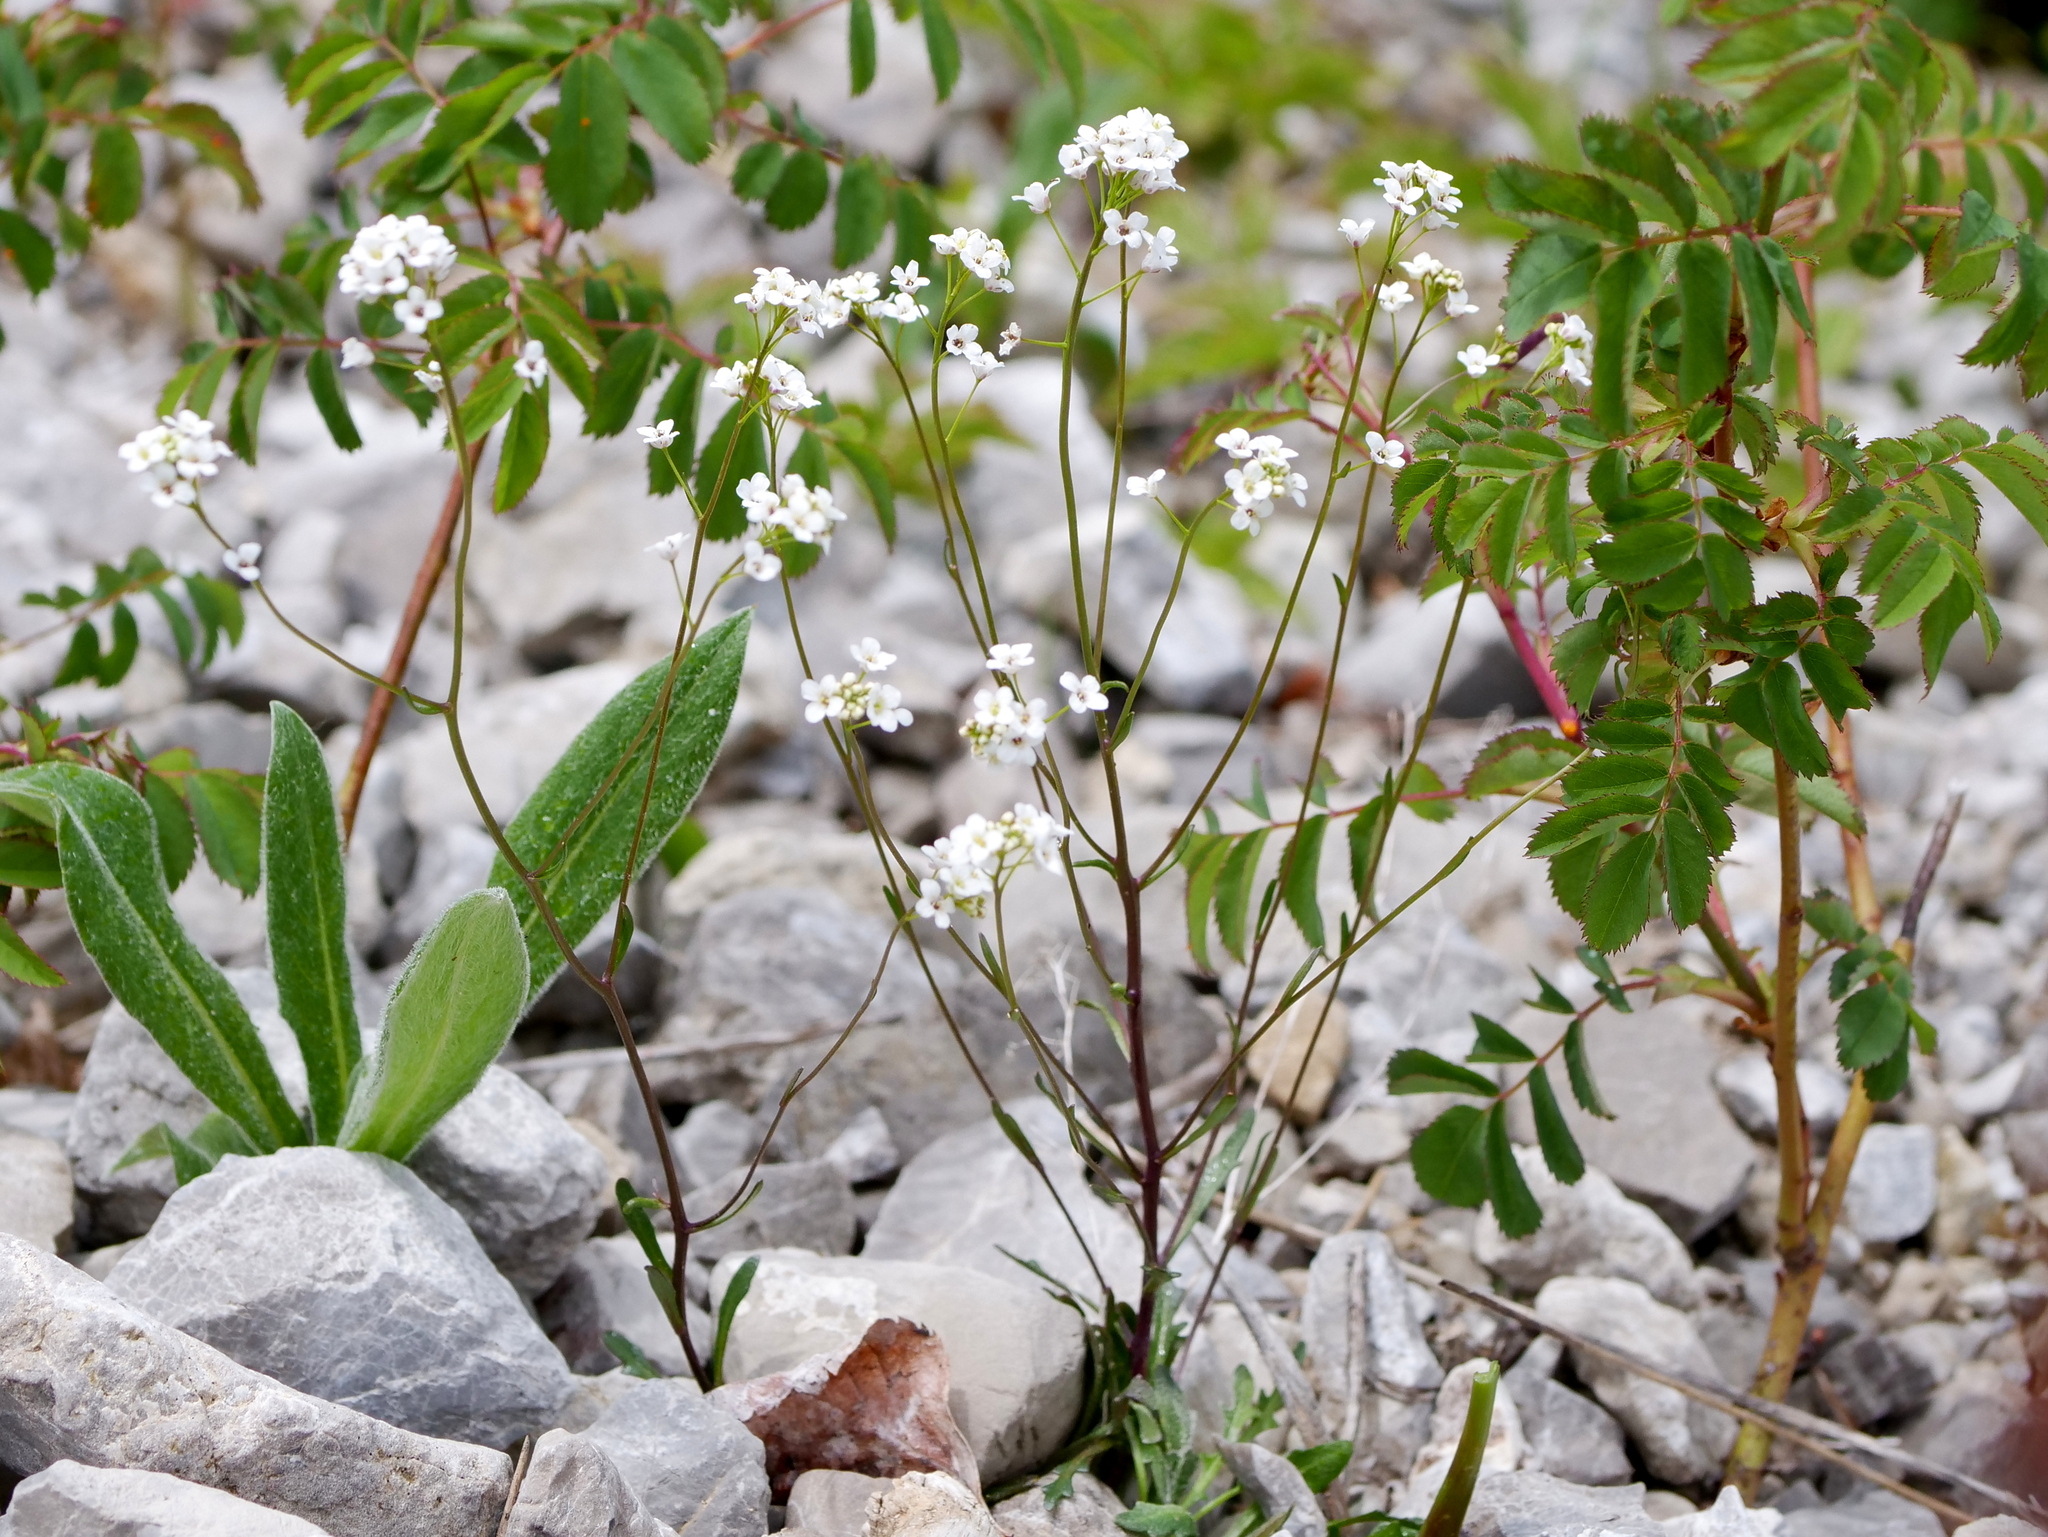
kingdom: Plantae
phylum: Tracheophyta
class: Magnoliopsida
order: Brassicales
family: Brassicaceae
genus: Kernera
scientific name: Kernera saxatilis
